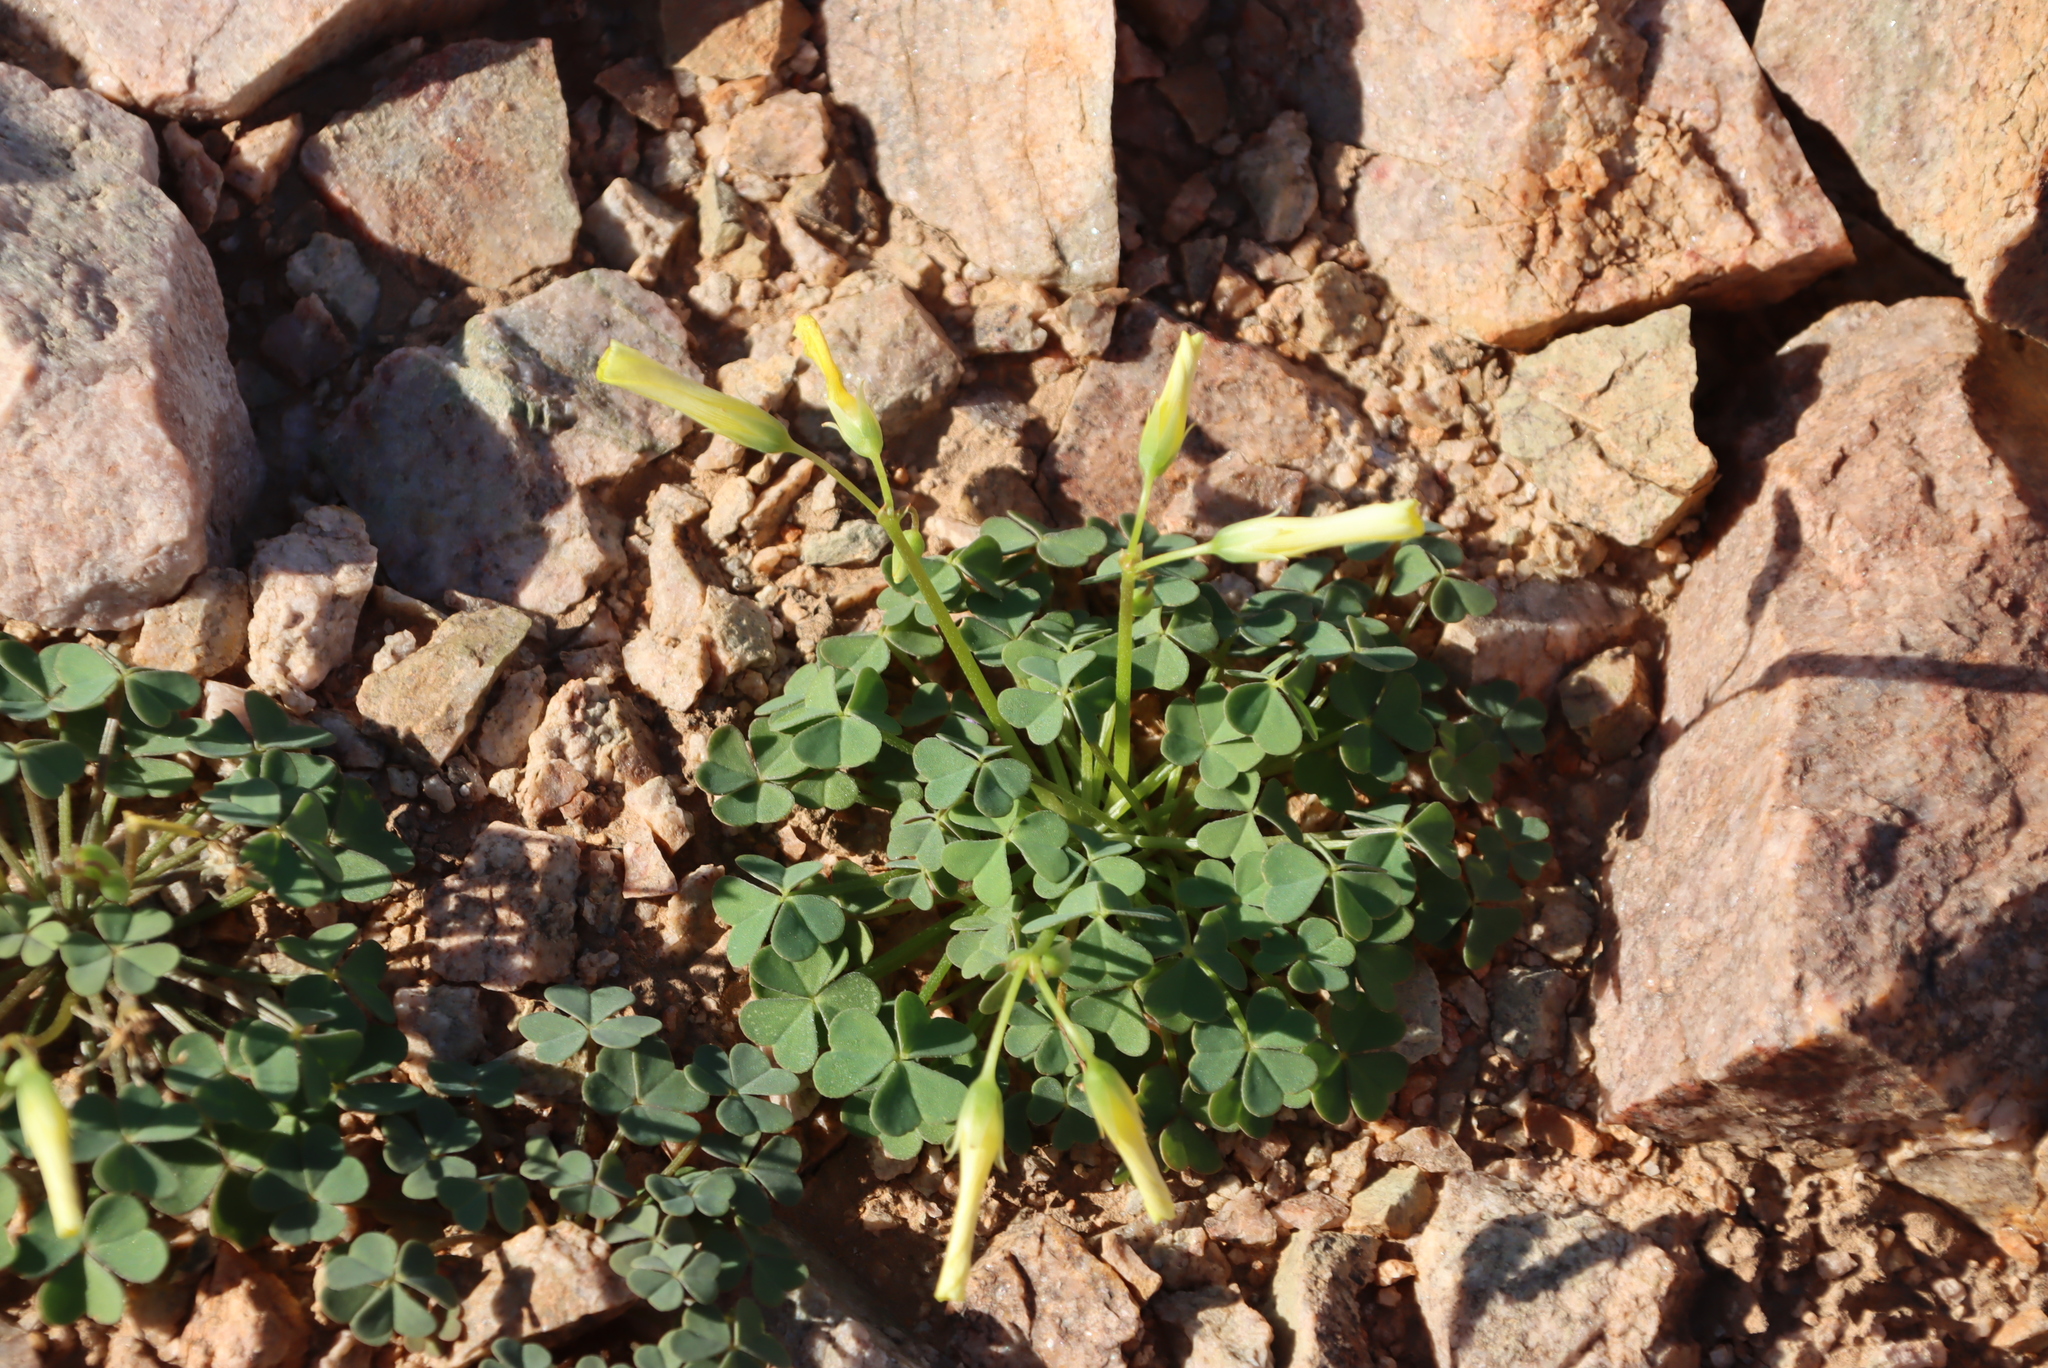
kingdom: Plantae
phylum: Tracheophyta
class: Magnoliopsida
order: Oxalidales
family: Oxalidaceae
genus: Oxalis
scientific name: Oxalis copiosa
